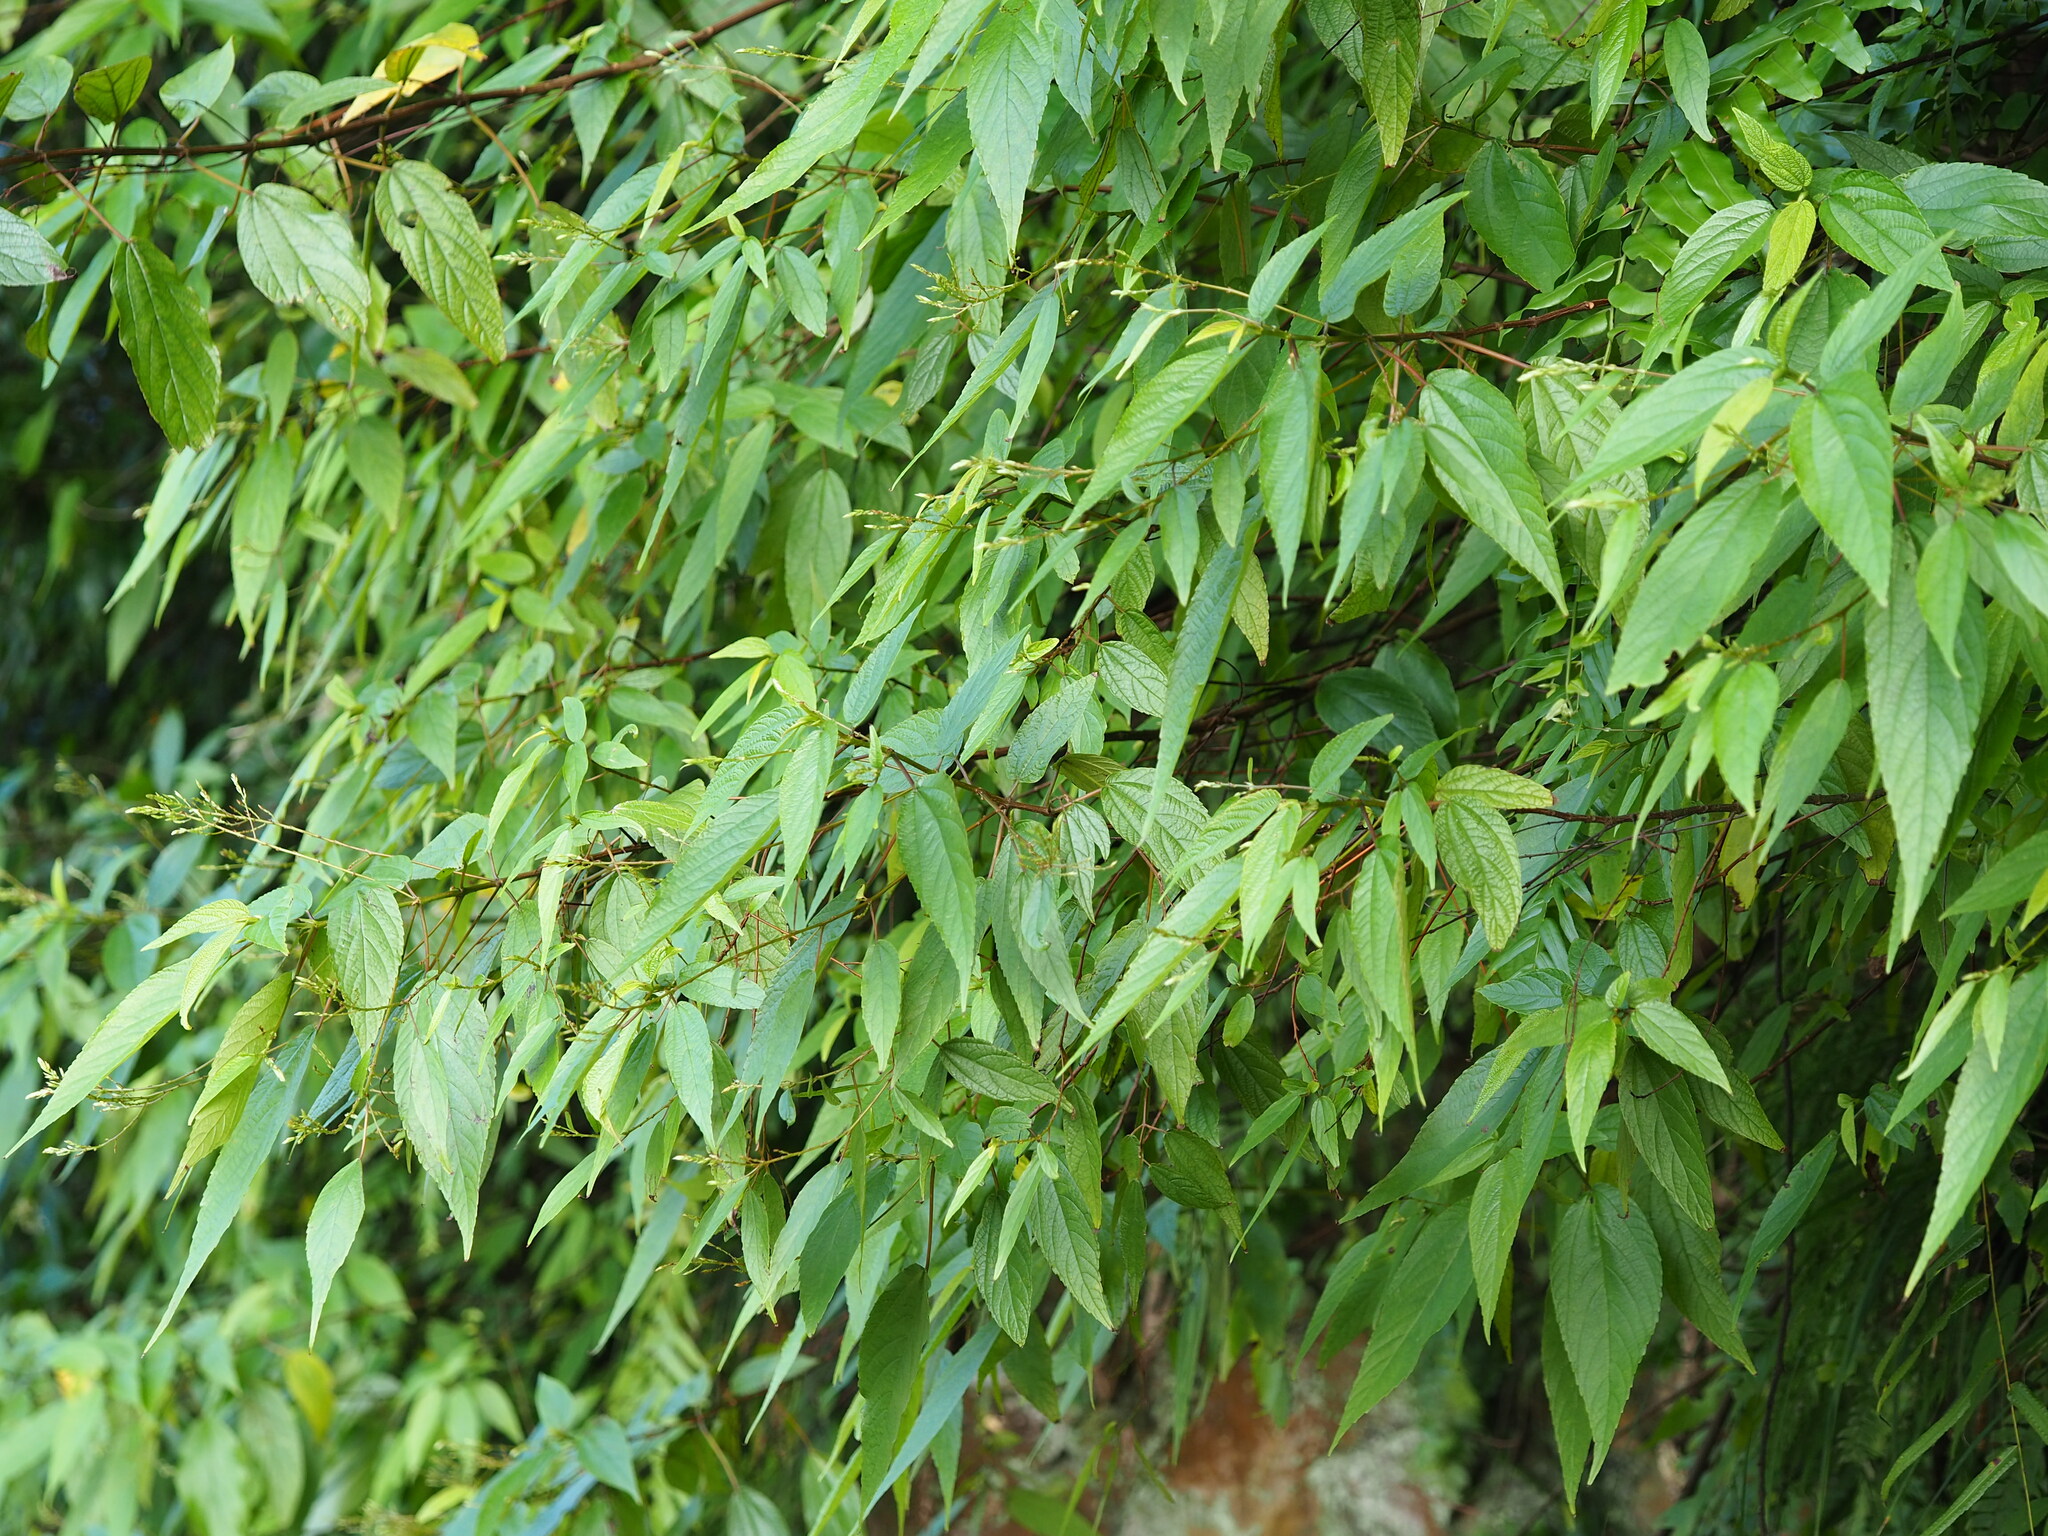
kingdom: Plantae
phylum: Tracheophyta
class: Magnoliopsida
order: Rosales
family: Urticaceae
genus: Boehmeria
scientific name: Boehmeria zollingeriana
